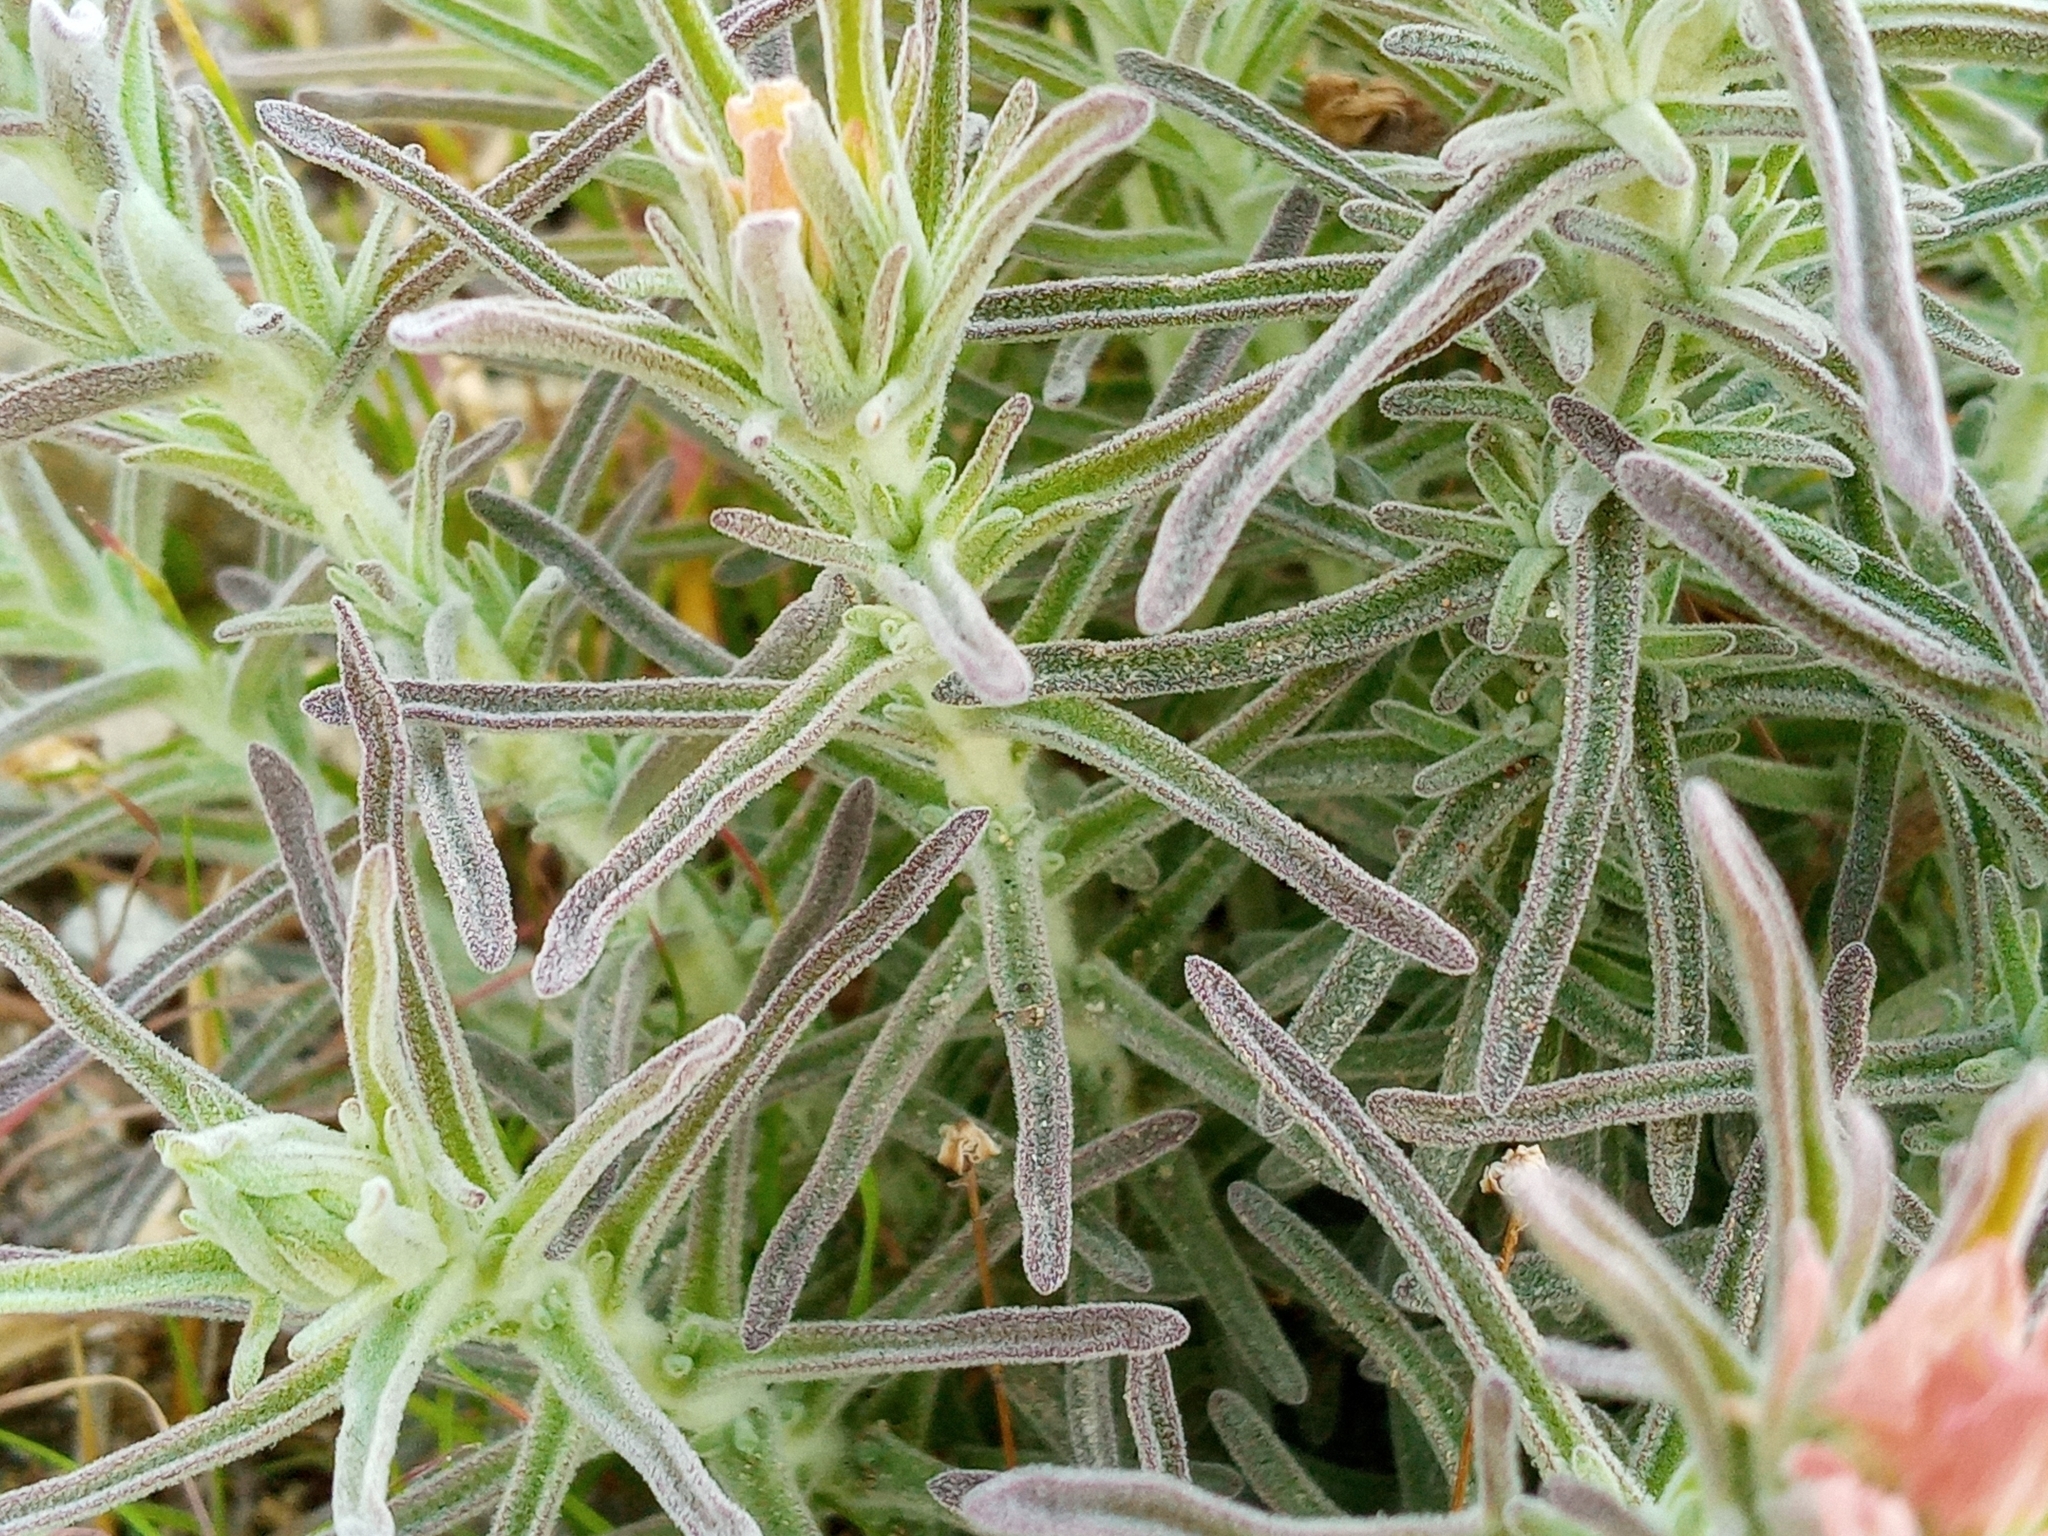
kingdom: Plantae
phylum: Tracheophyta
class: Magnoliopsida
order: Lamiales
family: Orobanchaceae
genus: Castilleja
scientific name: Castilleja foliolosa
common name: Woolly indian paintbrush
